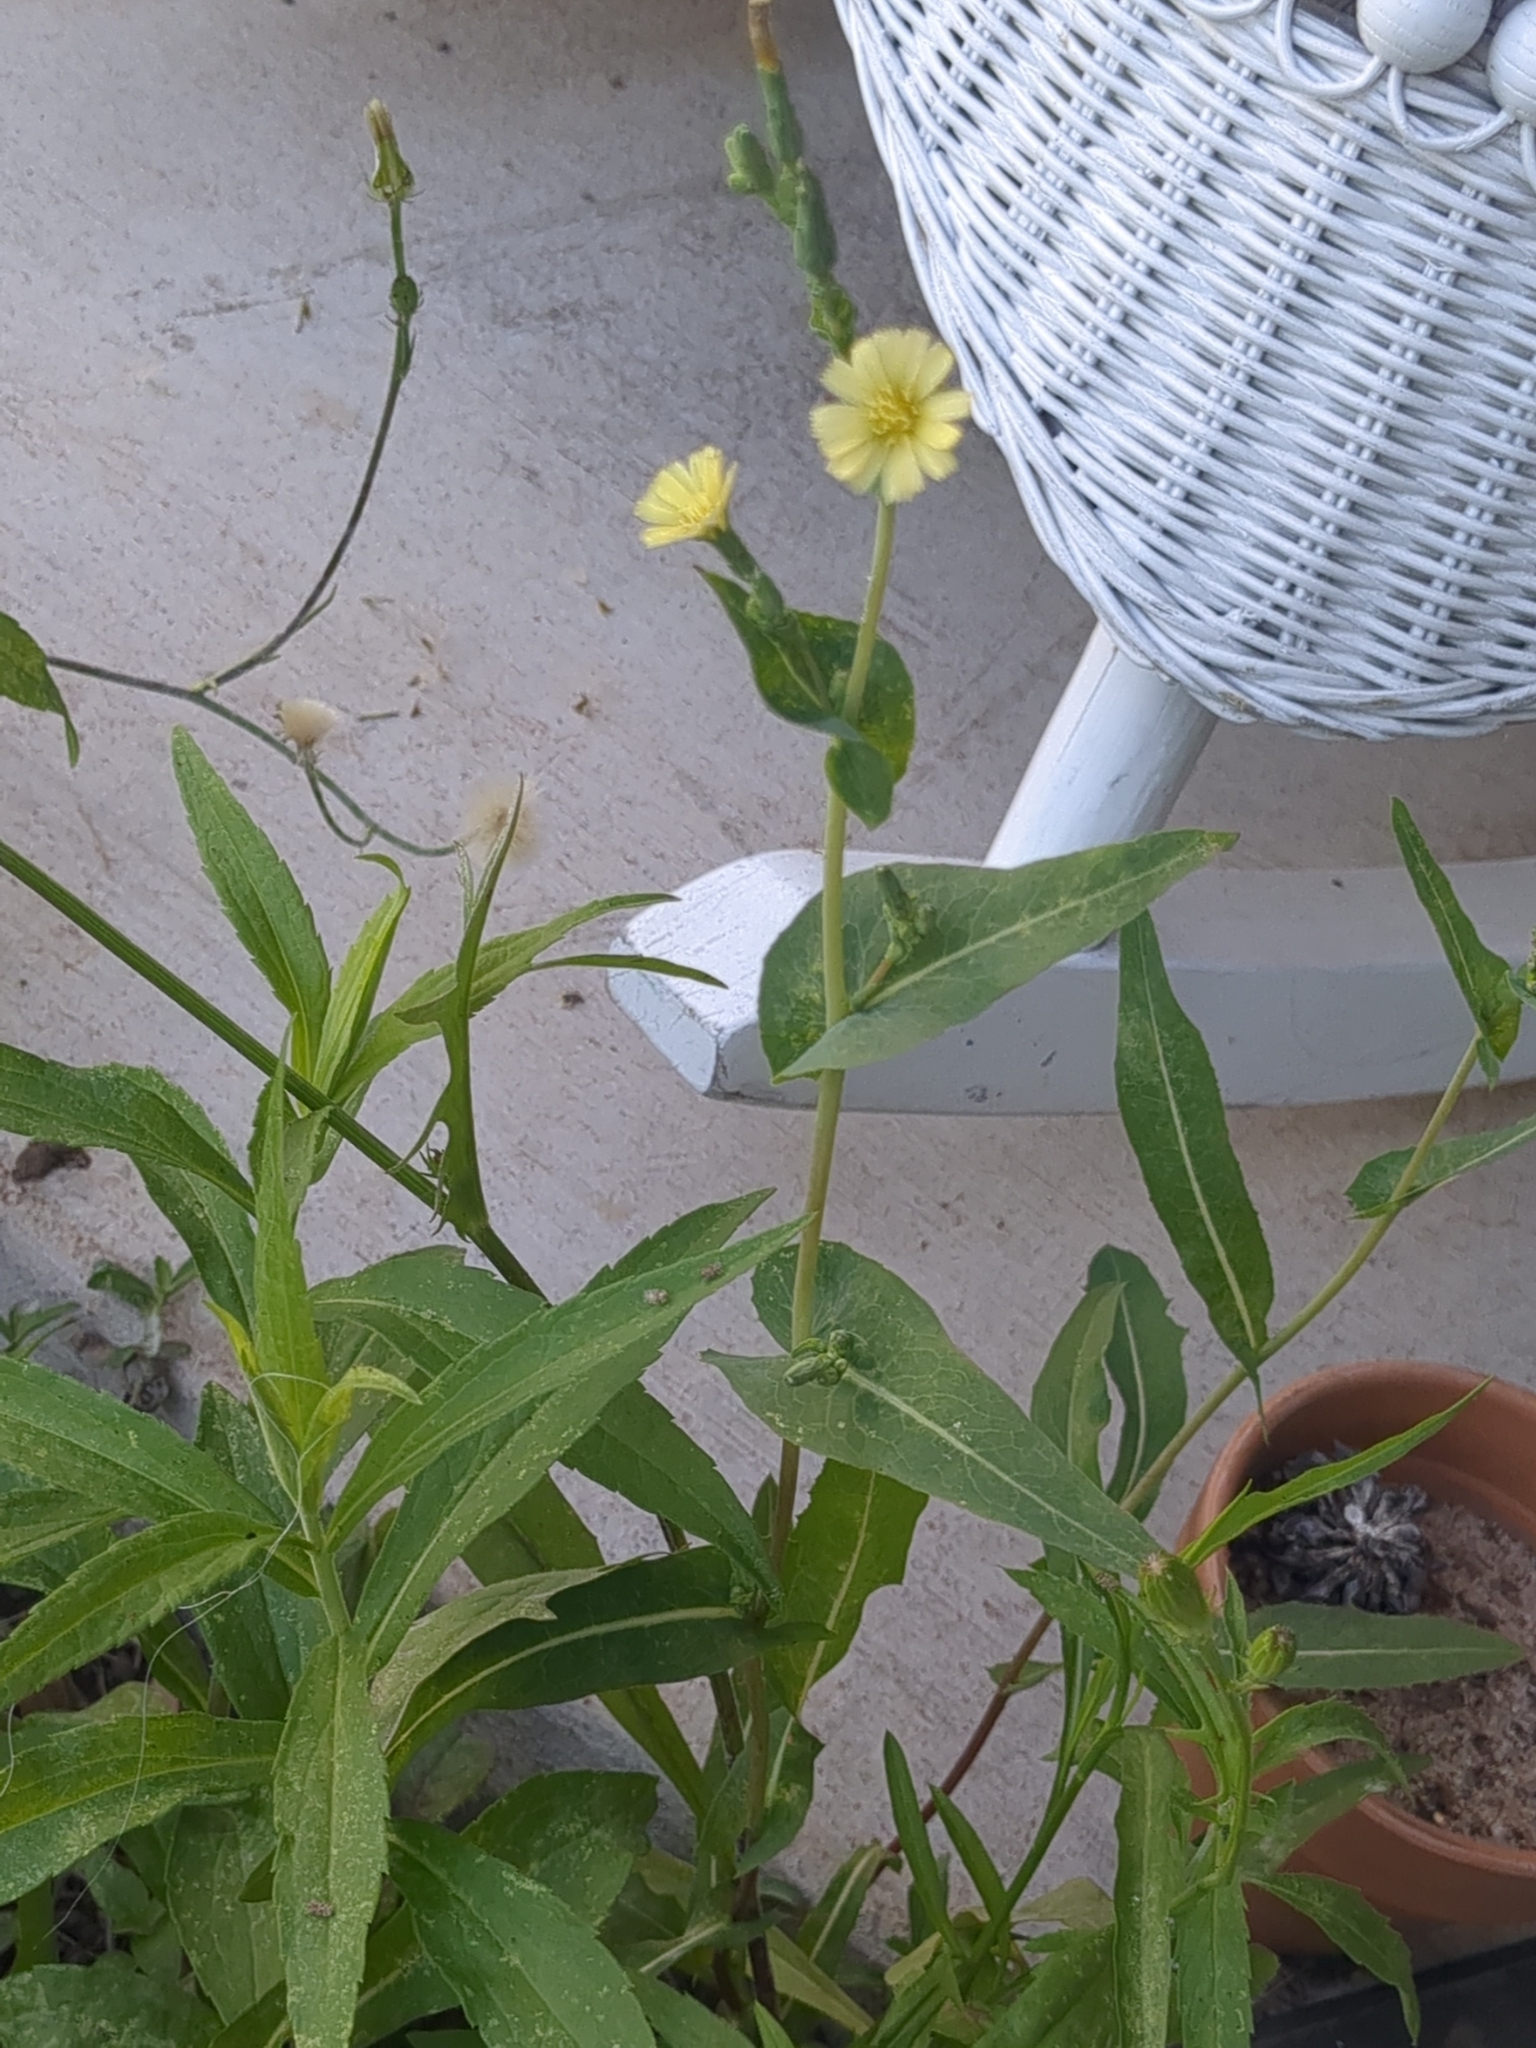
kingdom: Plantae
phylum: Tracheophyta
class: Magnoliopsida
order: Asterales
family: Asteraceae
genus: Lactuca
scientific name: Lactuca serriola
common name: Prickly lettuce
